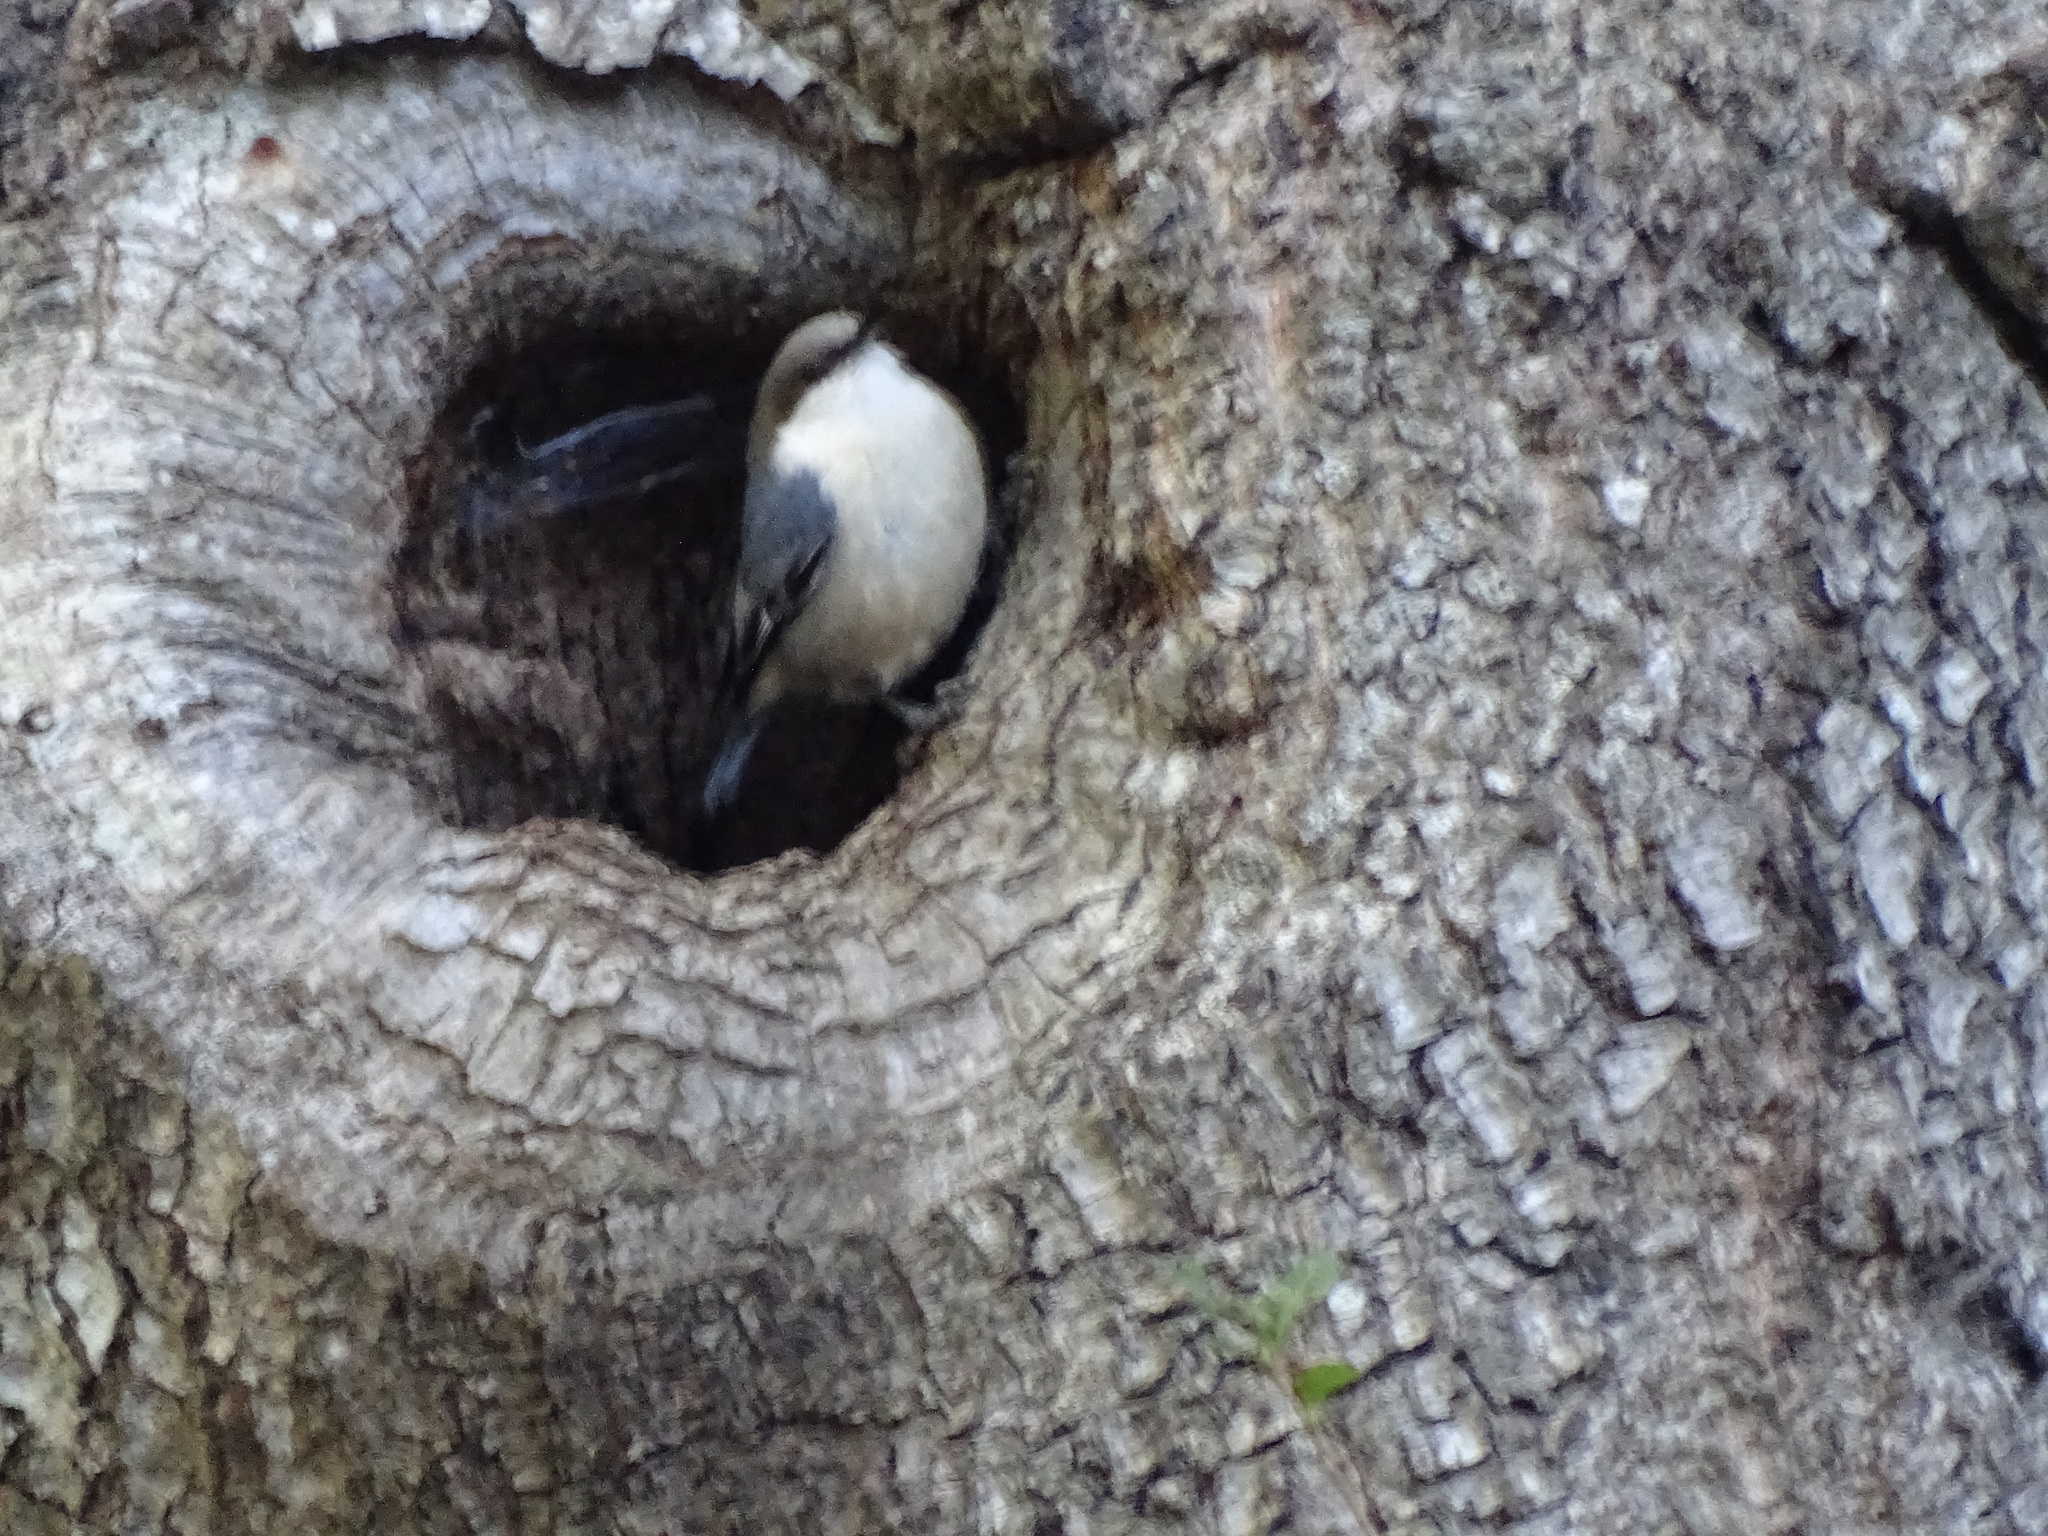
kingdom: Animalia
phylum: Chordata
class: Aves
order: Passeriformes
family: Sittidae
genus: Sitta
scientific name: Sitta pygmaea
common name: Pygmy nuthatch
